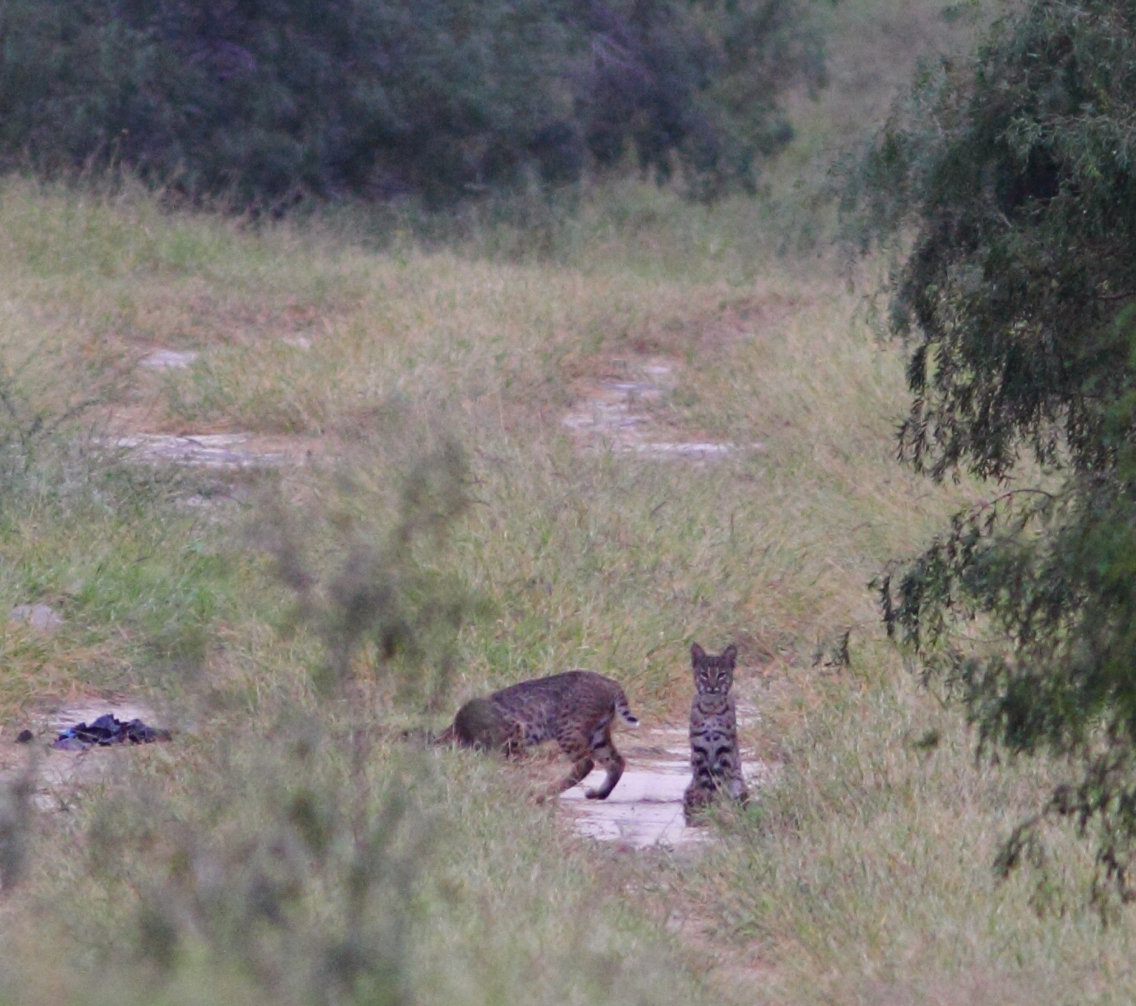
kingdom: Animalia
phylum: Chordata
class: Mammalia
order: Carnivora
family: Felidae
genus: Lynx
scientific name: Lynx rufus
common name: Bobcat
